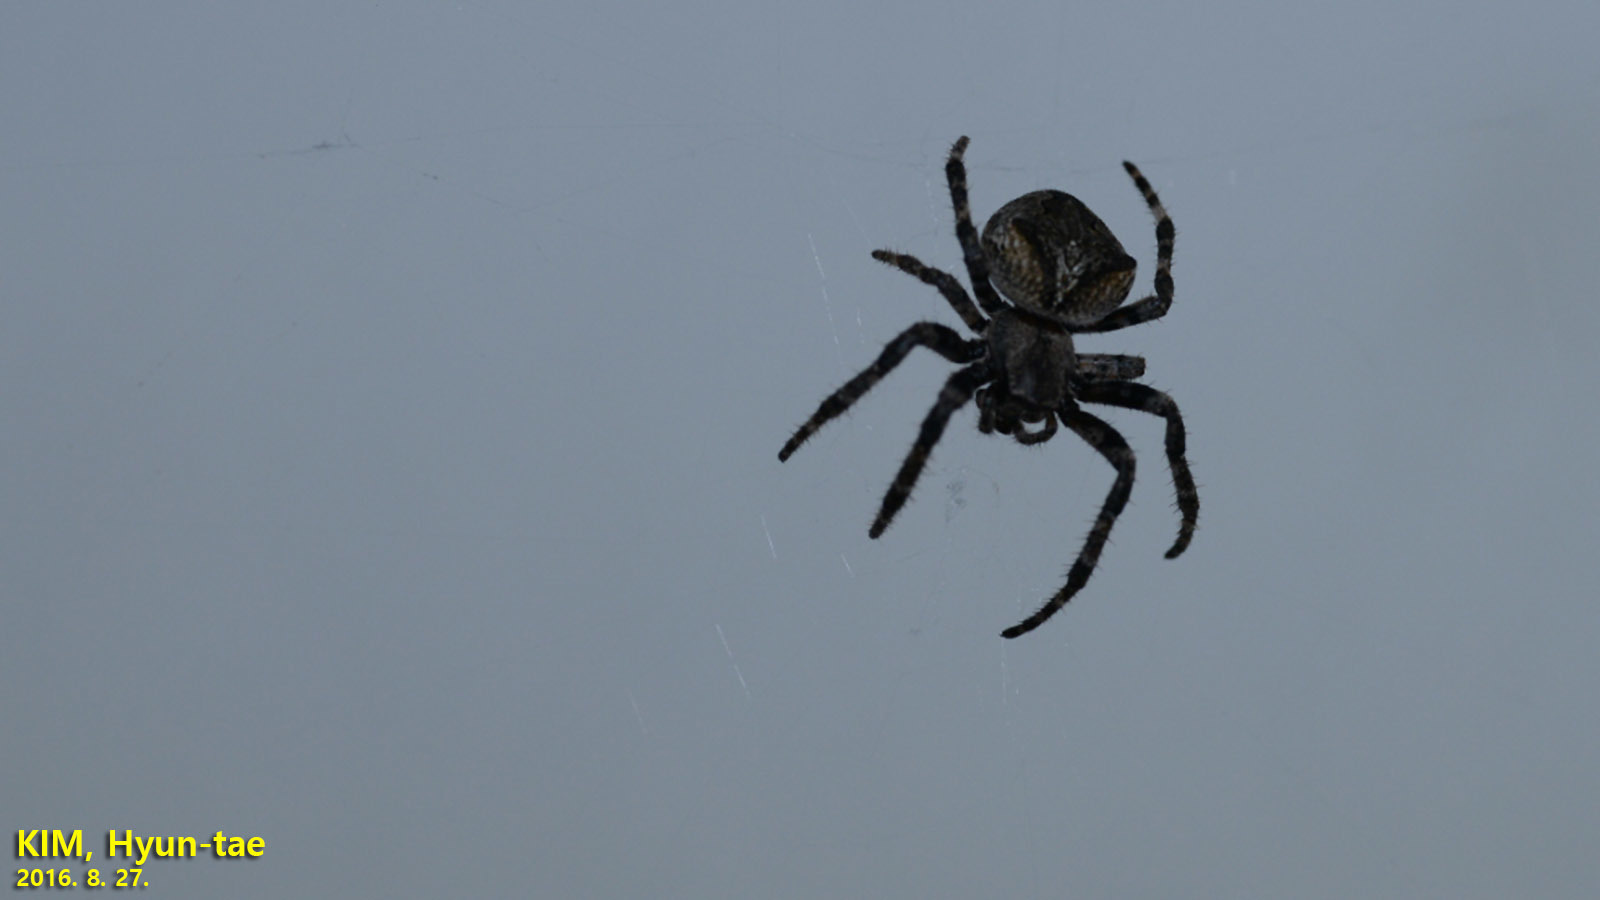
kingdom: Animalia
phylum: Arthropoda
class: Arachnida
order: Araneae
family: Araneidae
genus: Araneus
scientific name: Araneus ventricosus
